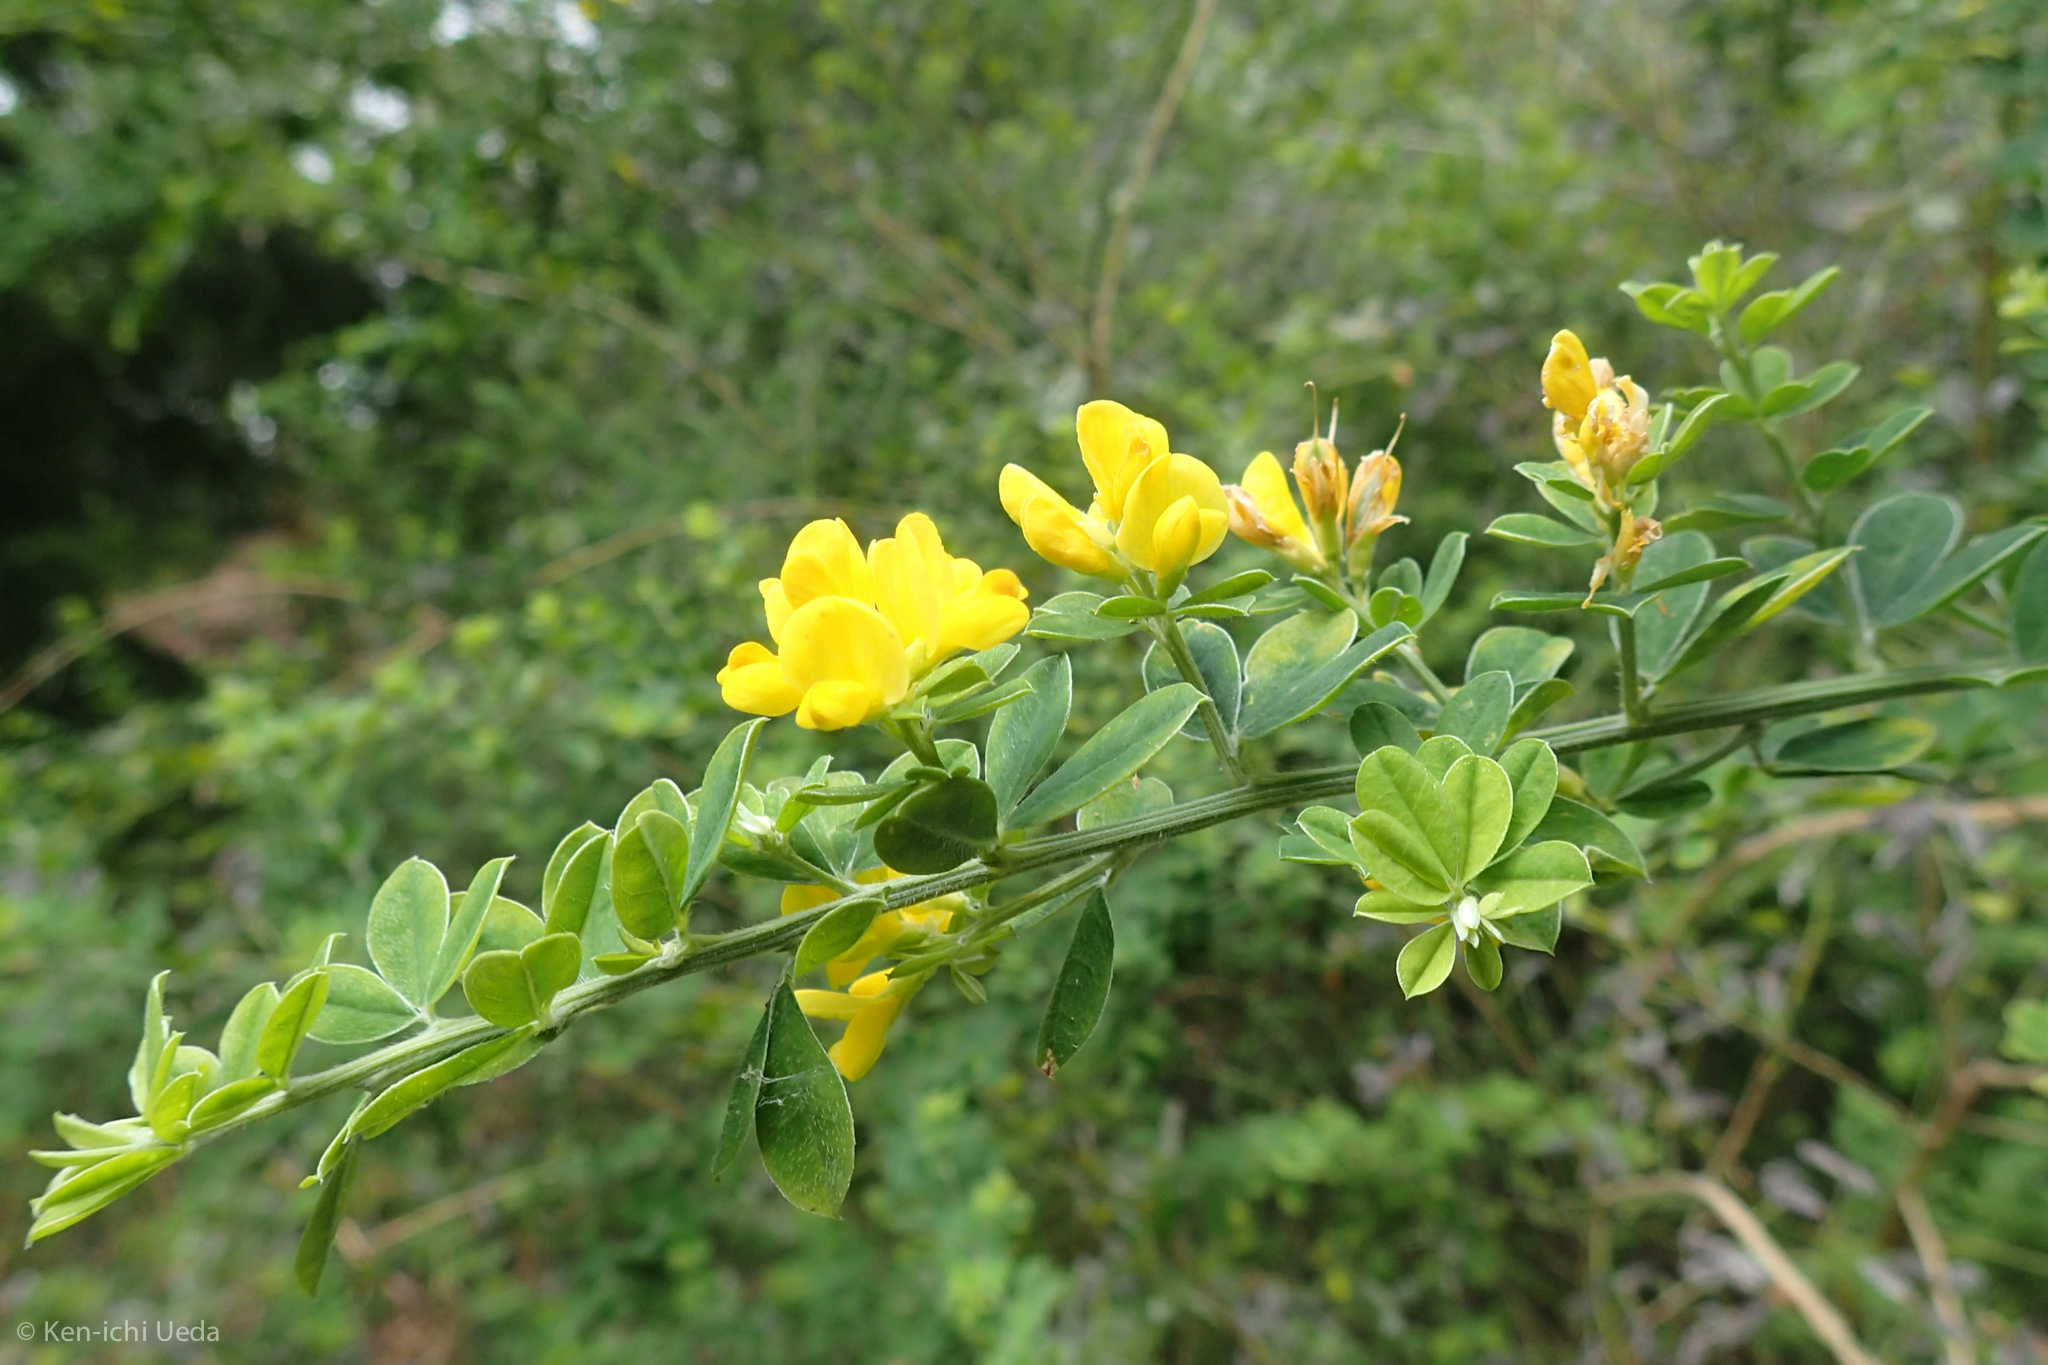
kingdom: Plantae
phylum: Tracheophyta
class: Magnoliopsida
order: Fabales
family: Fabaceae
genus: Genista
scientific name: Genista monspessulana
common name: Montpellier broom
